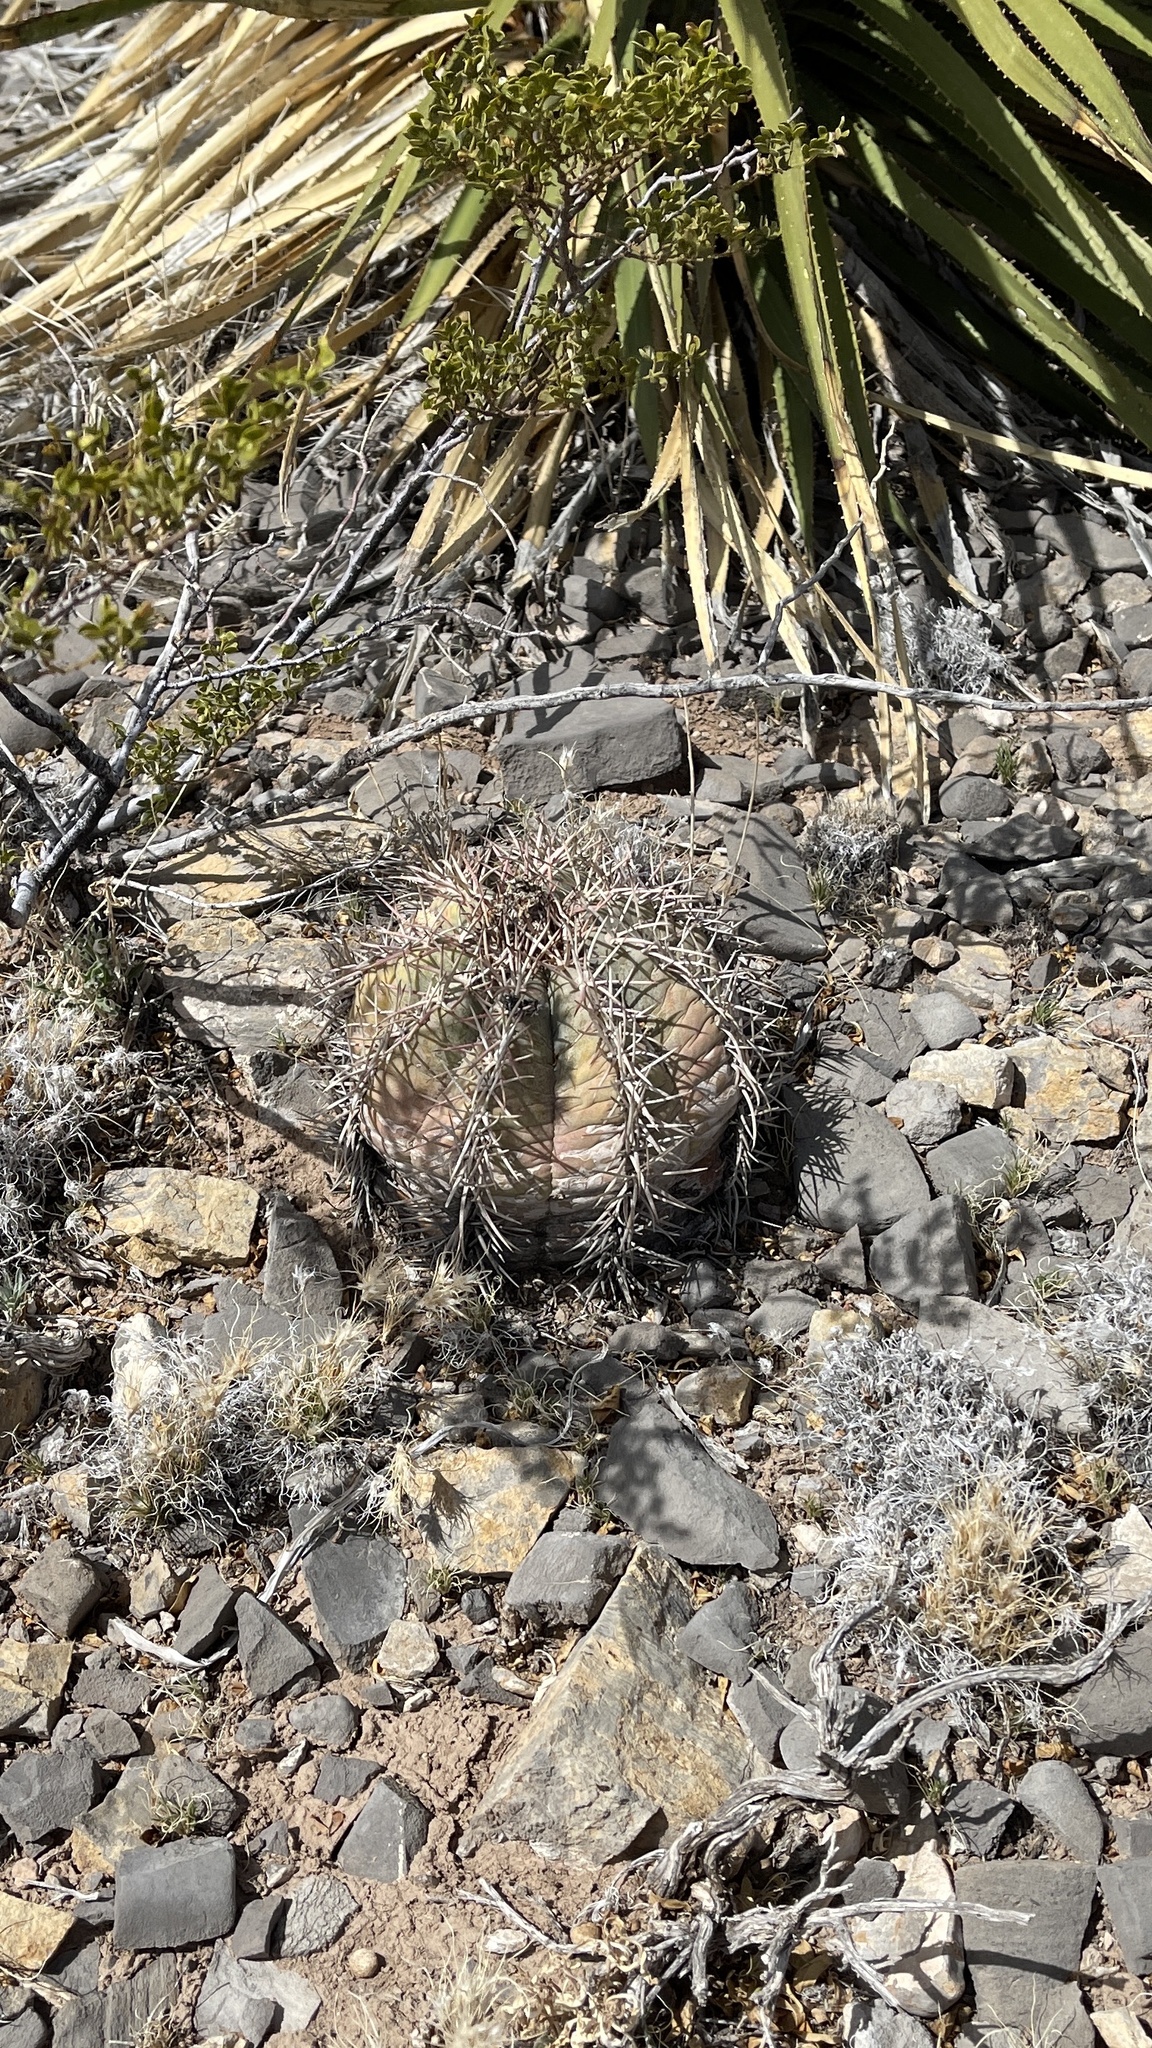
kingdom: Plantae
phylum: Tracheophyta
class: Magnoliopsida
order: Caryophyllales
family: Cactaceae
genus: Echinocactus
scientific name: Echinocactus horizonthalonius
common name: Devilshead
